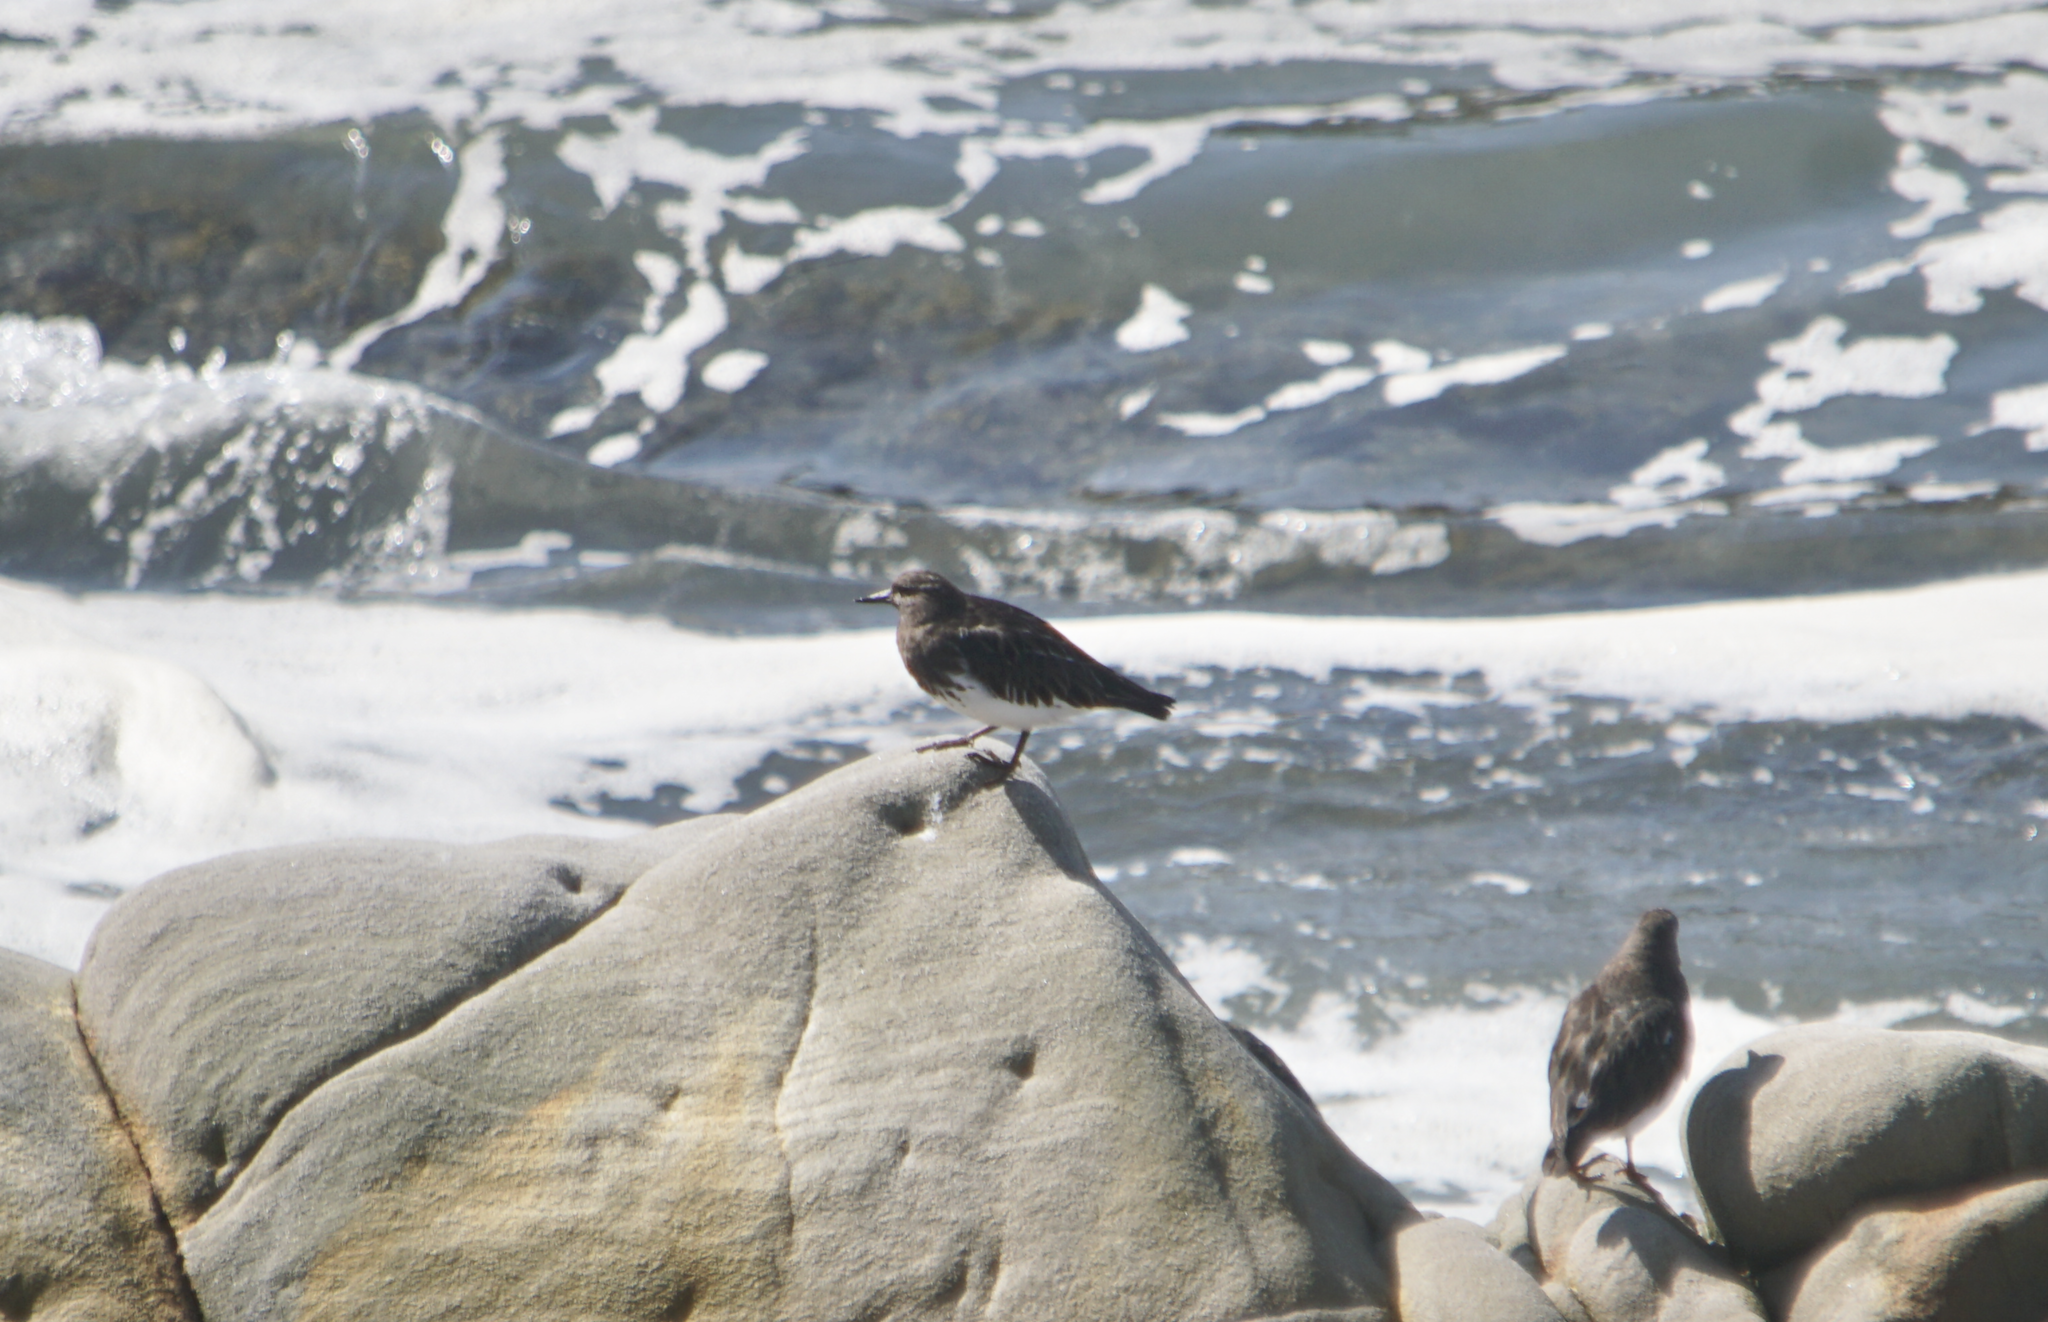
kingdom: Animalia
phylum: Chordata
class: Aves
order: Charadriiformes
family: Scolopacidae
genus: Arenaria
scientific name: Arenaria melanocephala
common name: Black turnstone
